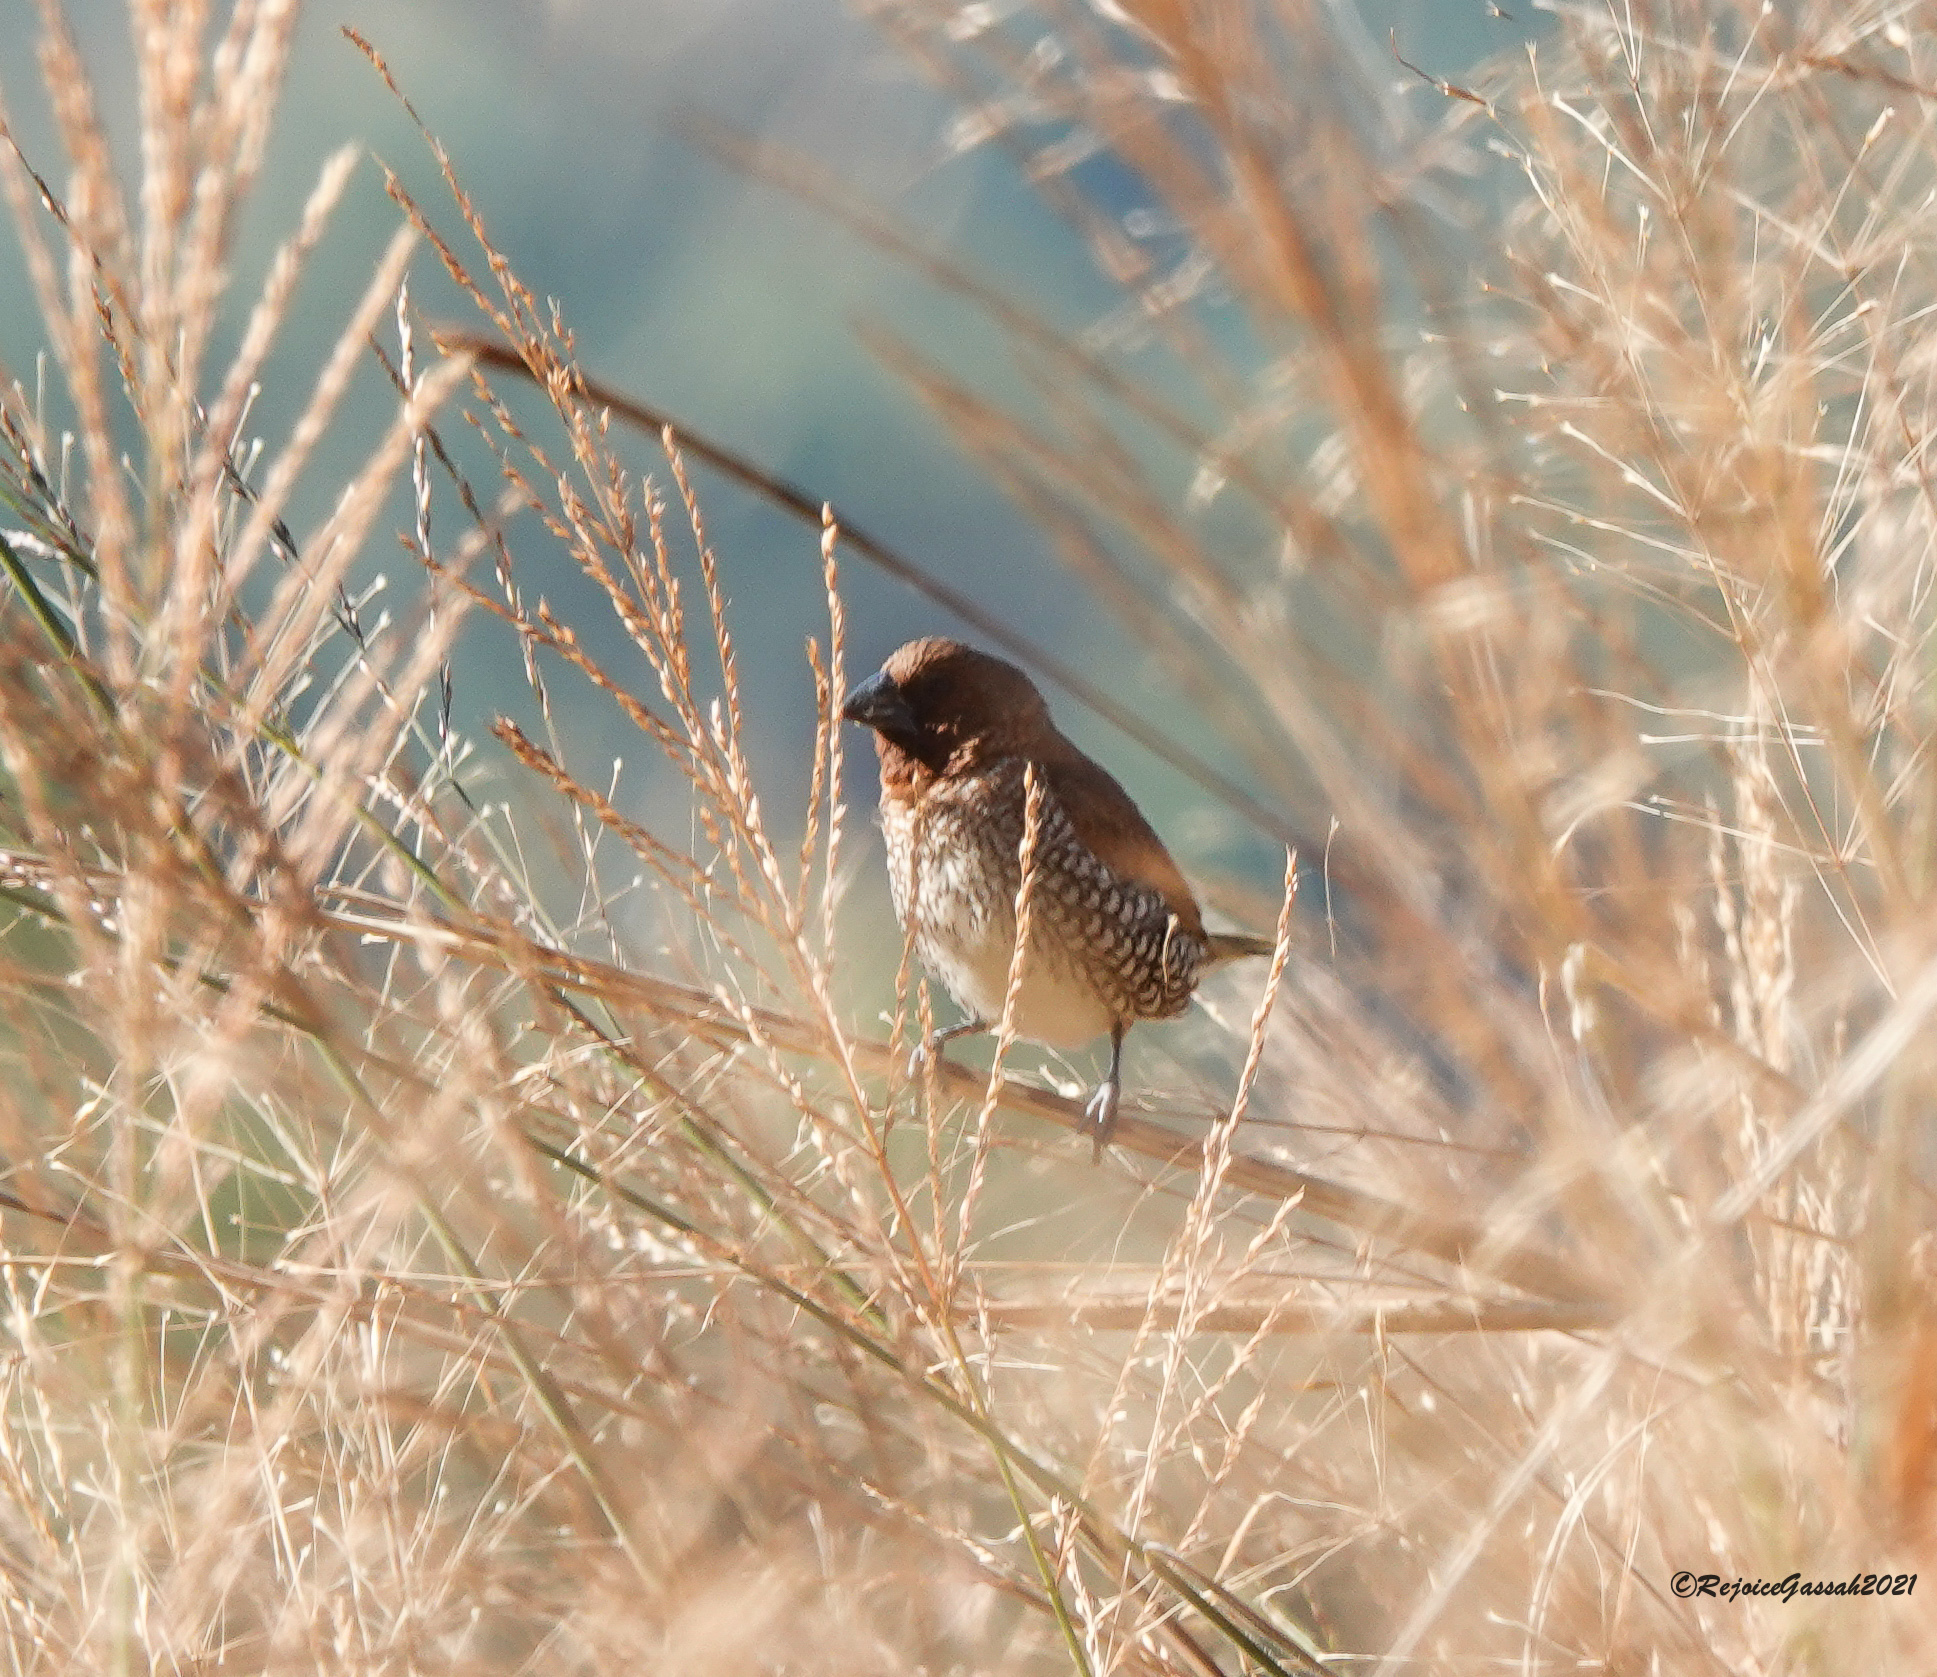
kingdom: Animalia
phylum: Chordata
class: Aves
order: Passeriformes
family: Estrildidae
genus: Lonchura
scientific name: Lonchura punctulata
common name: Scaly-breasted munia
